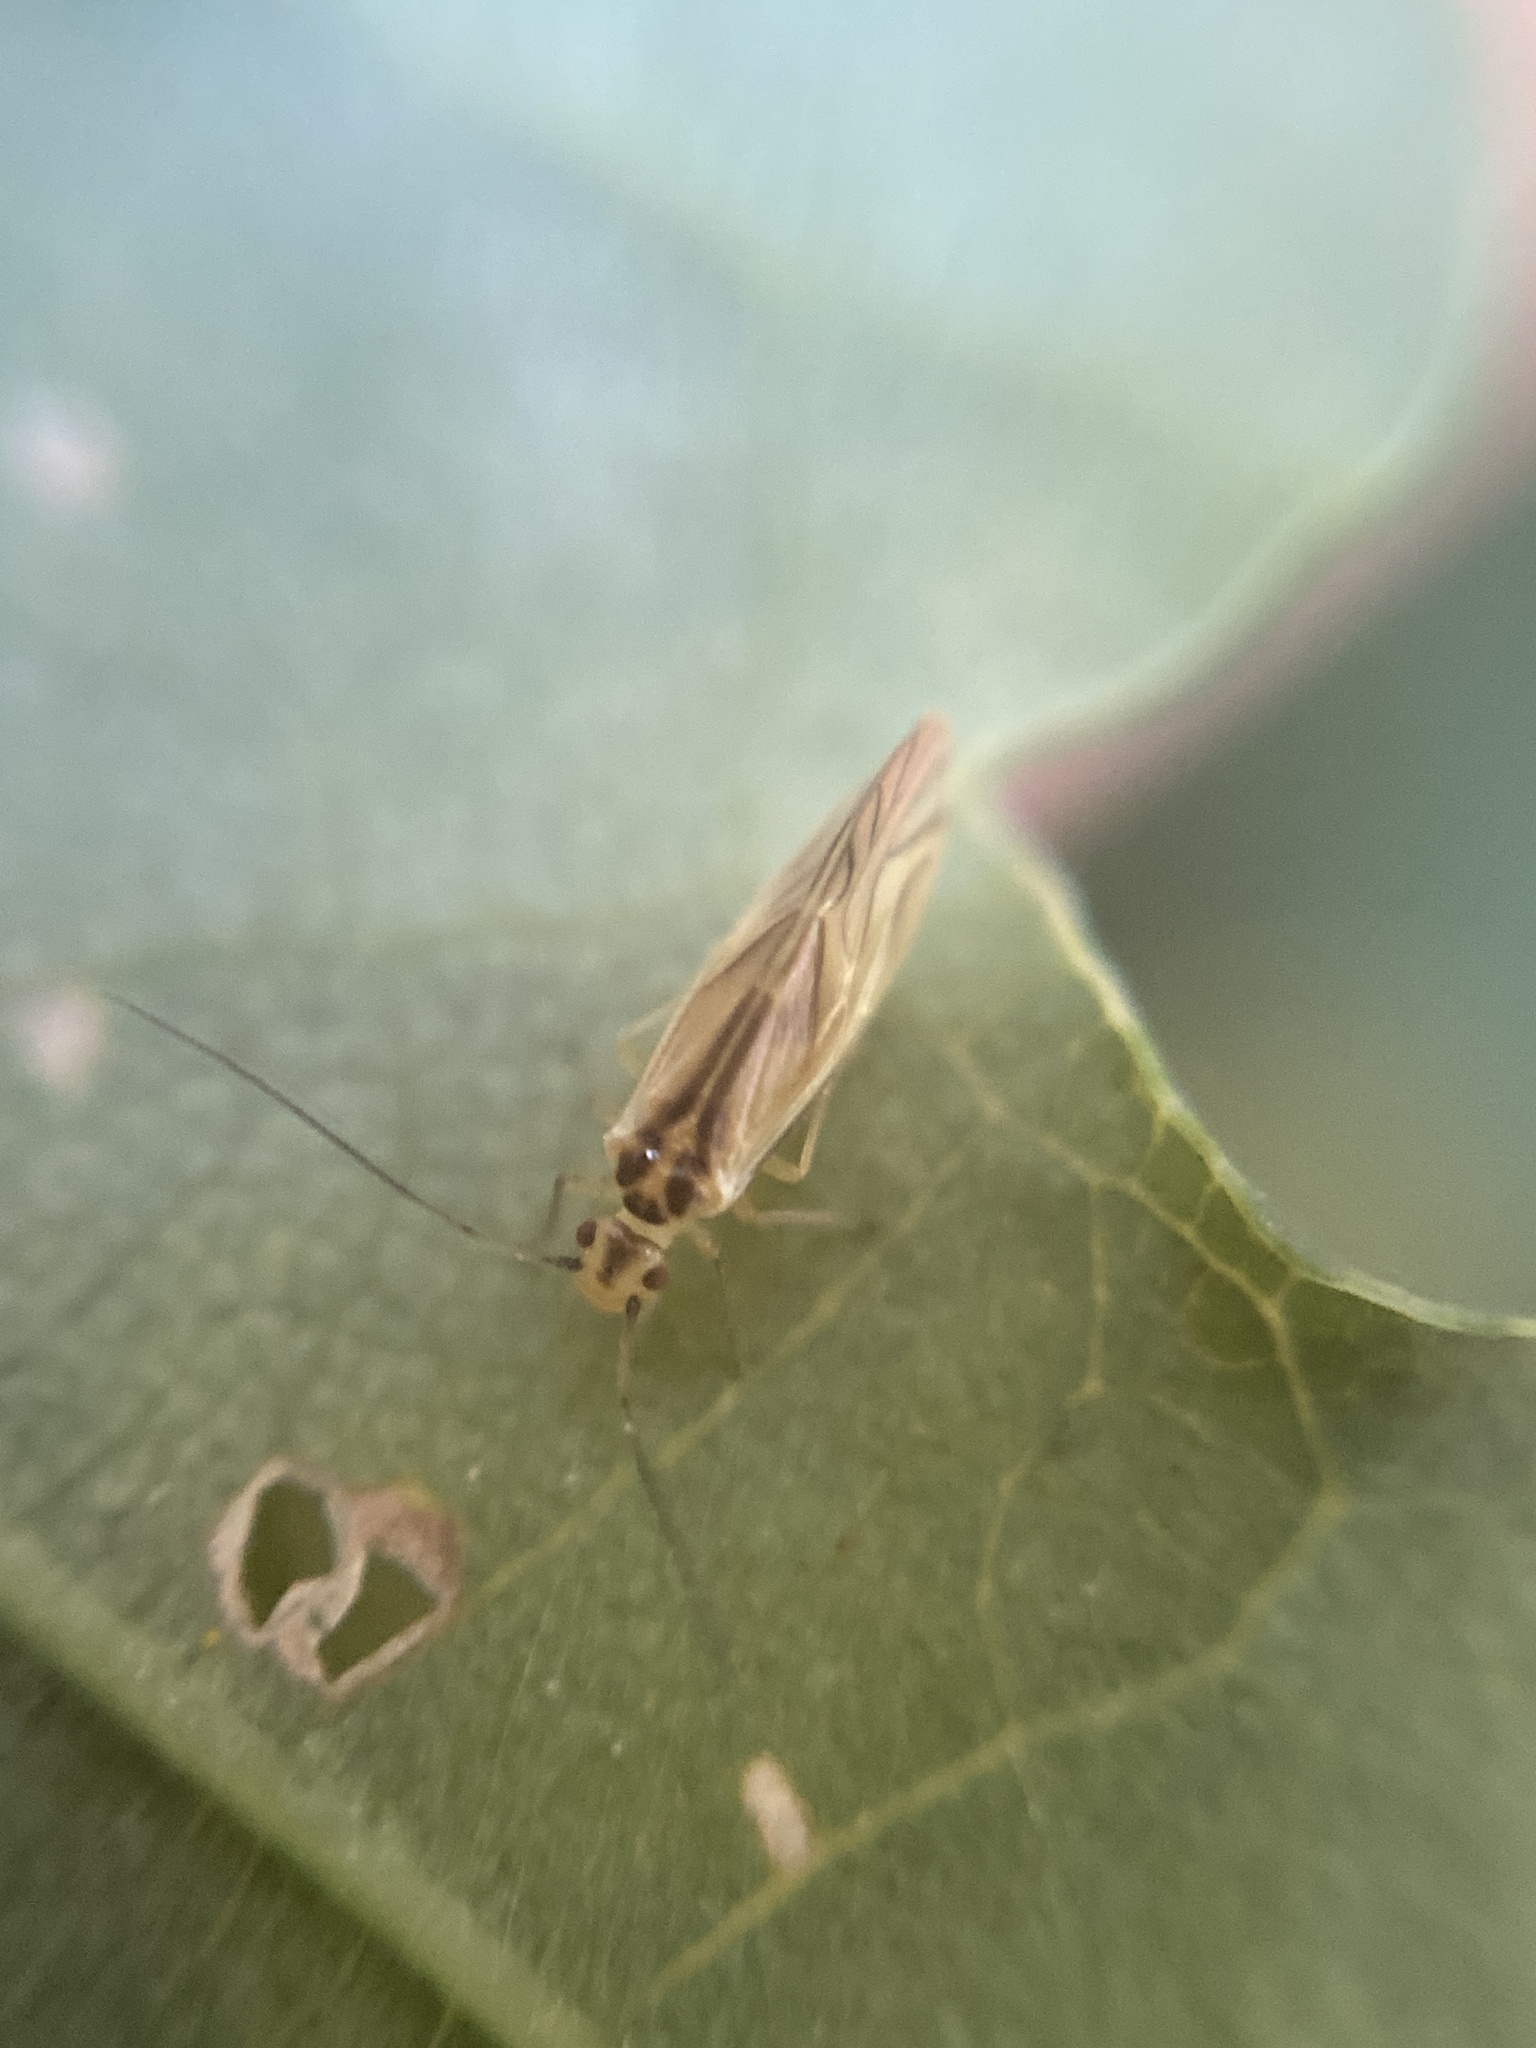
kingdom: Animalia
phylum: Arthropoda
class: Insecta
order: Psocodea
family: Caeciliusidae
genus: Valenzuela
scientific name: Valenzuela flavidus
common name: Yellow barklouse
